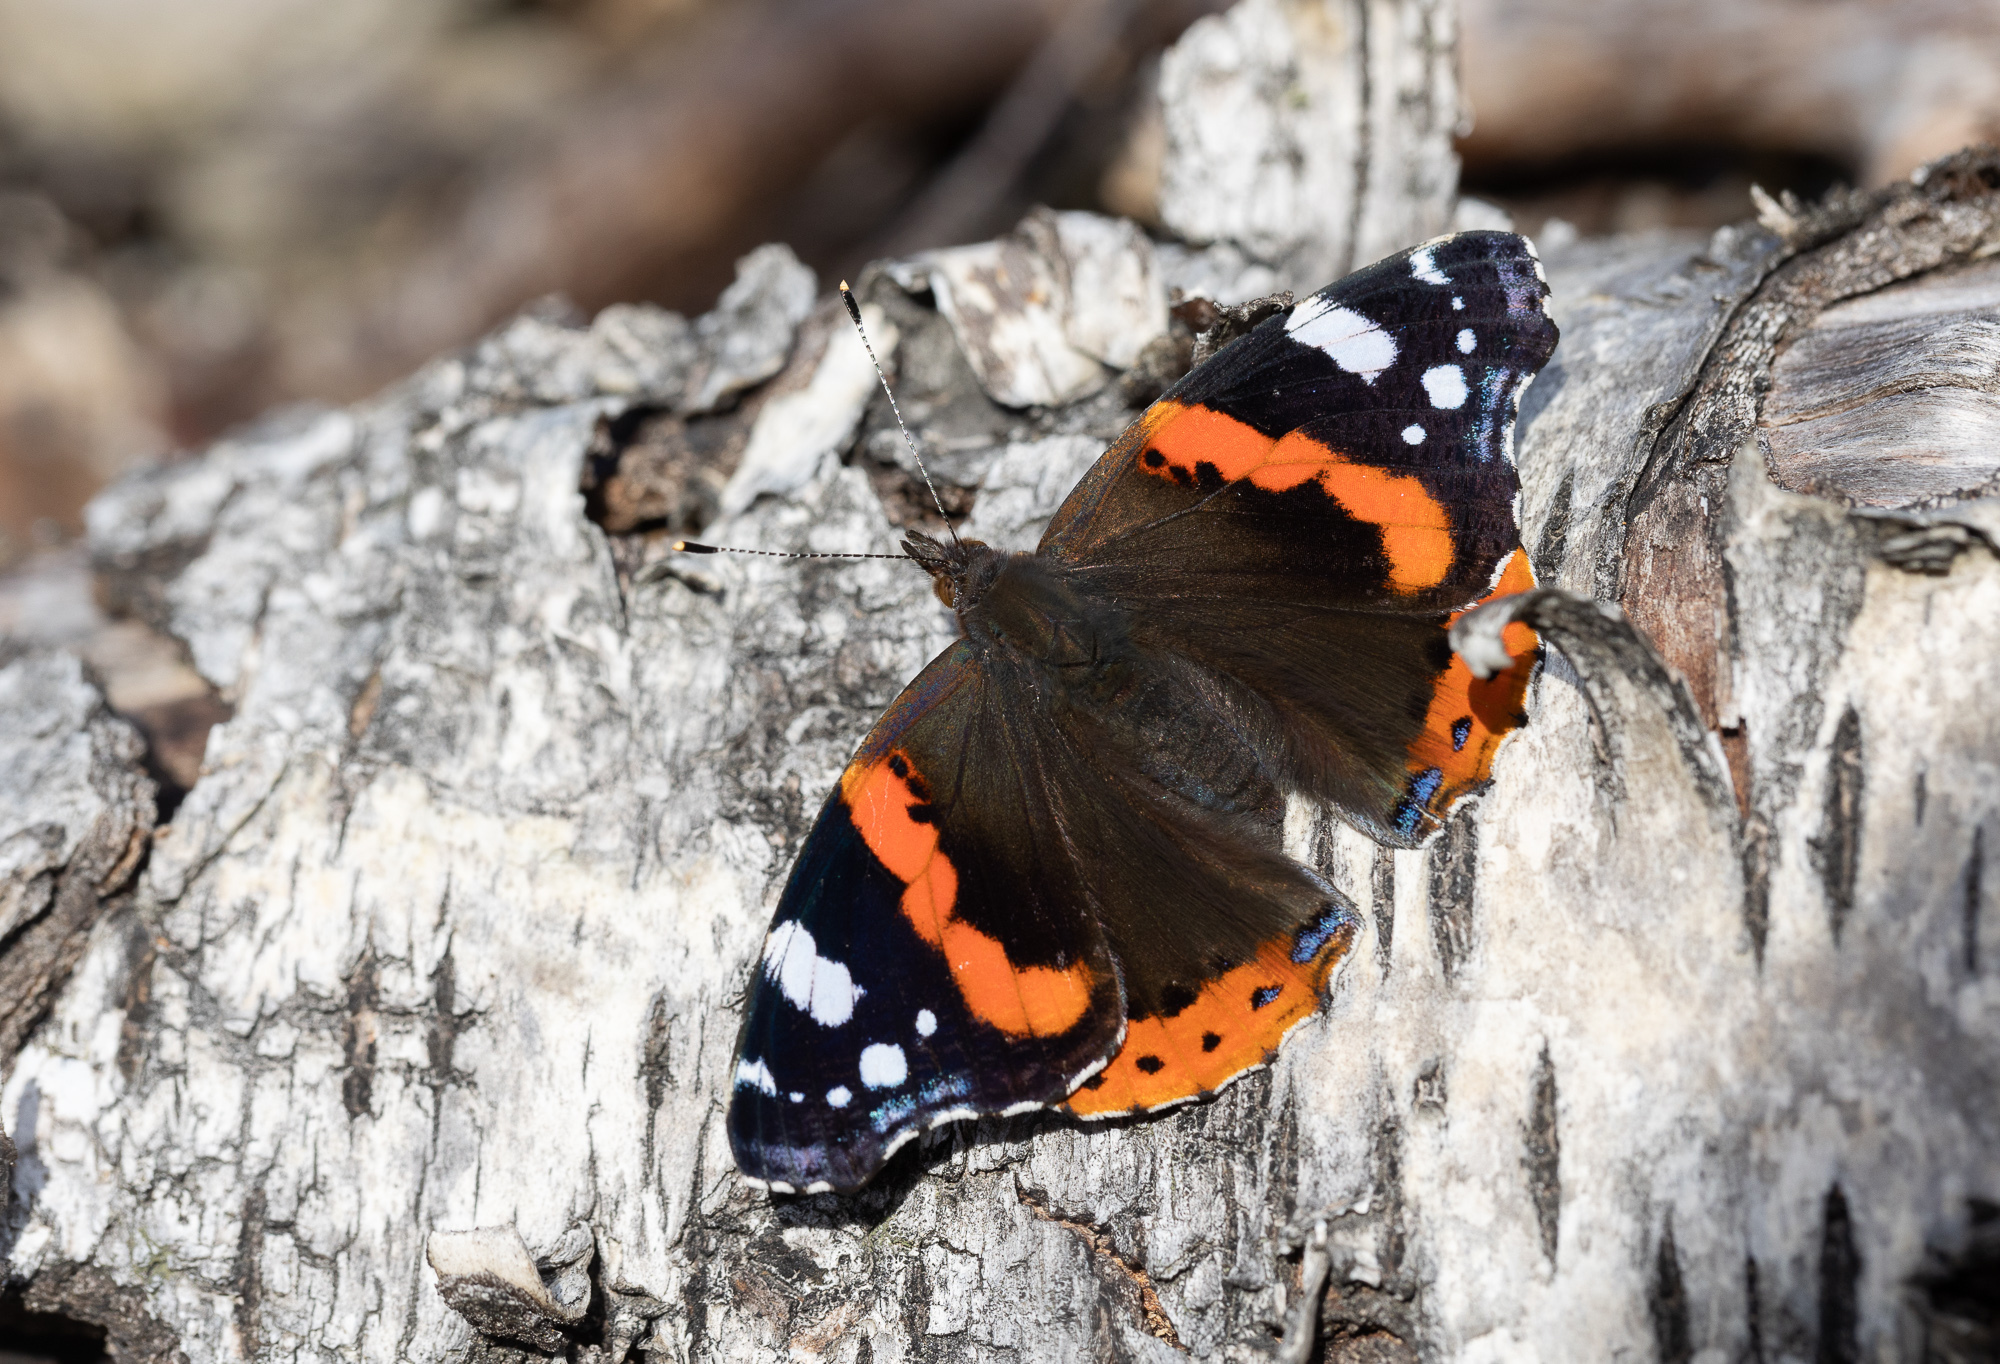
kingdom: Animalia
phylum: Arthropoda
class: Insecta
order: Lepidoptera
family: Nymphalidae
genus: Vanessa
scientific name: Vanessa atalanta
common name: Red admiral
